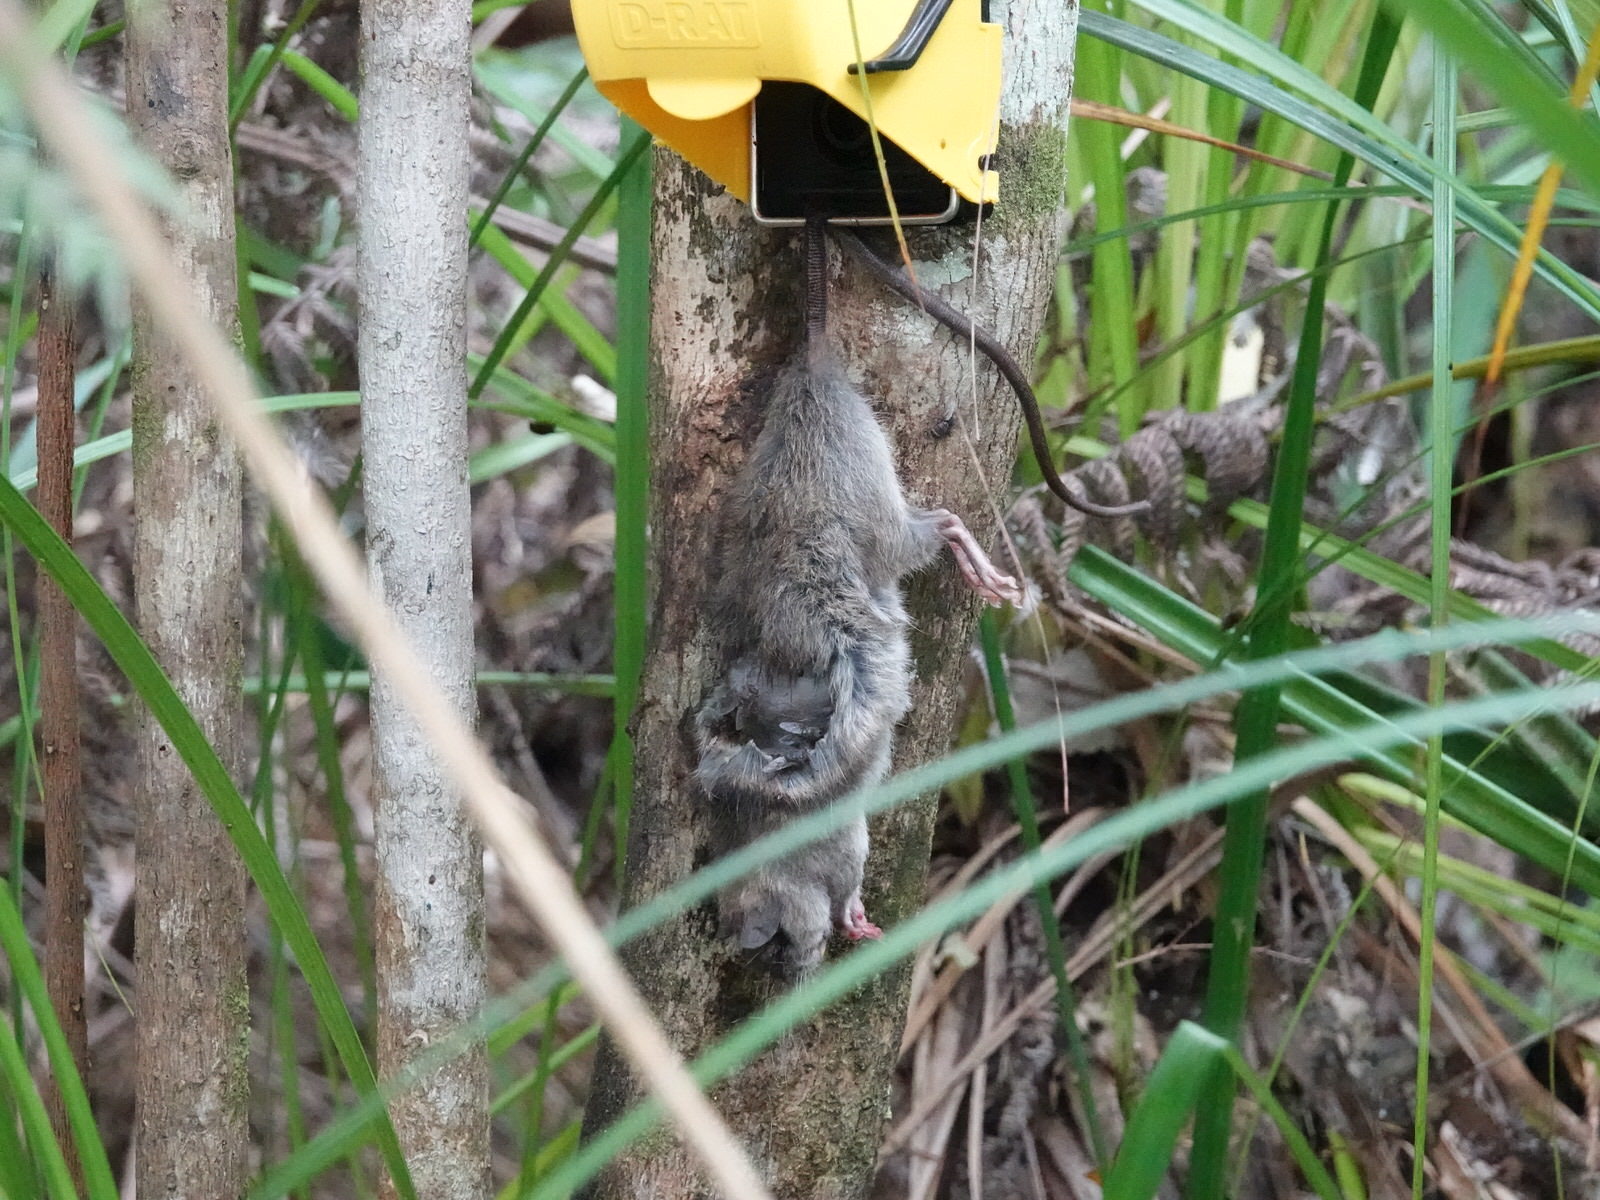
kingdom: Animalia
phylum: Chordata
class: Mammalia
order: Rodentia
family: Muridae
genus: Rattus
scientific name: Rattus rattus
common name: Black rat
